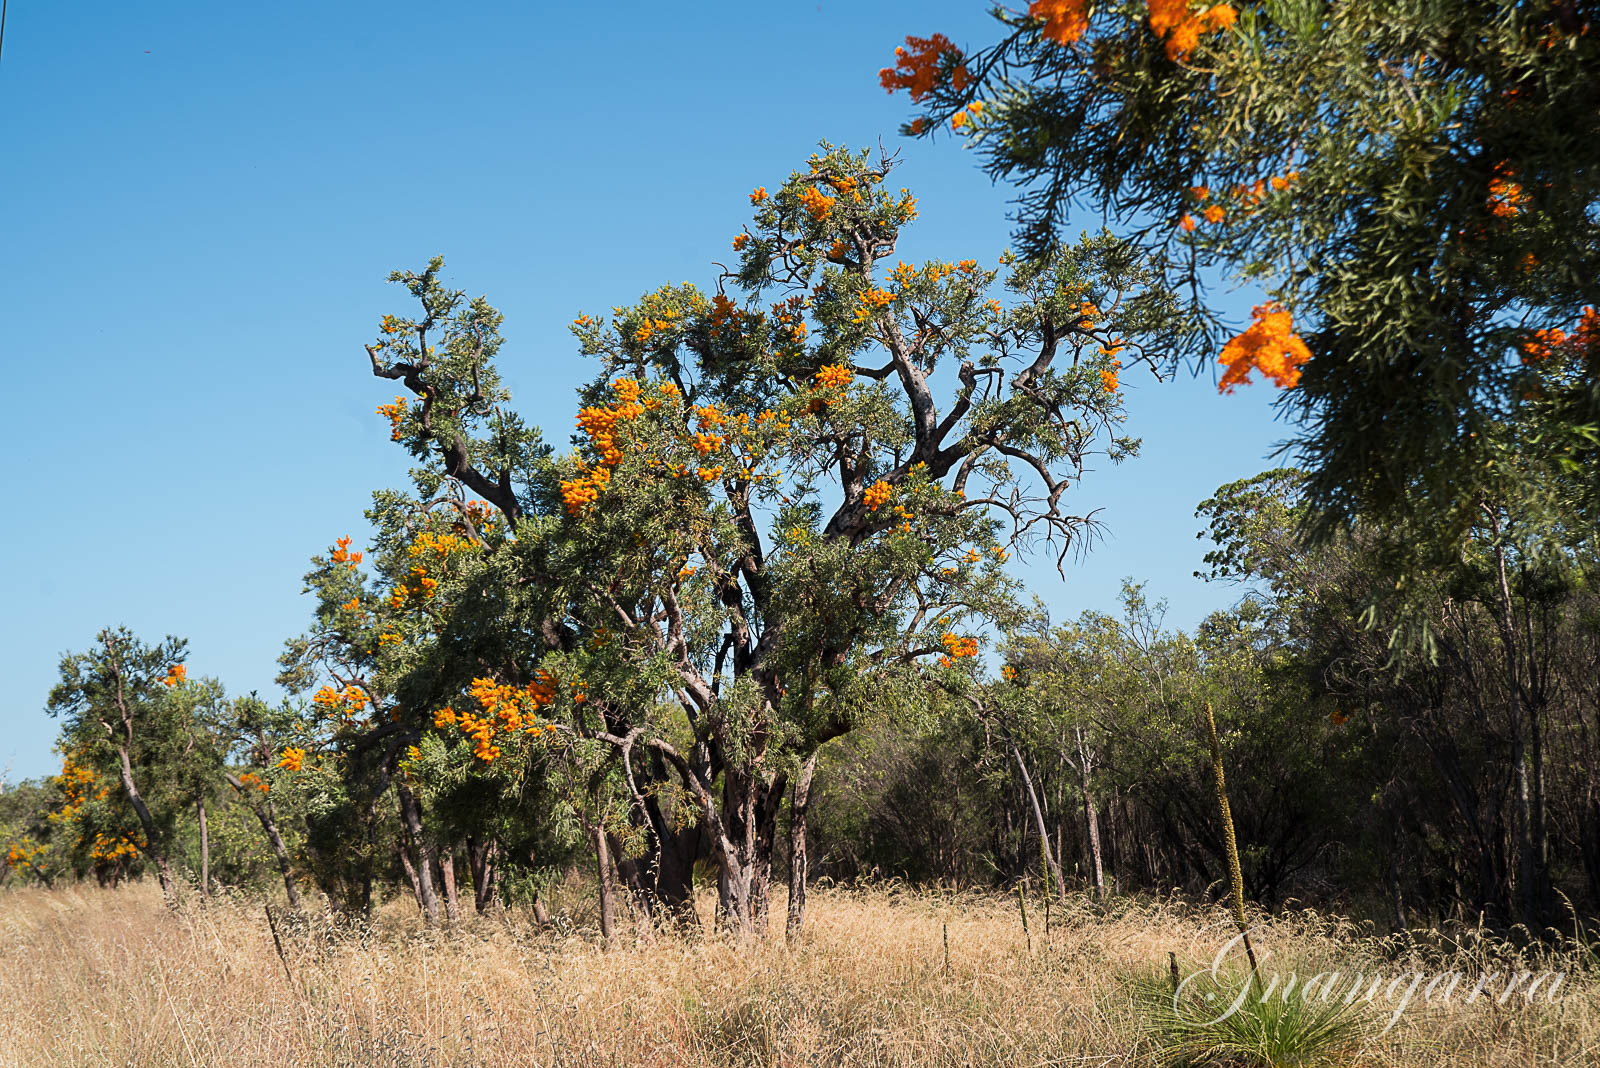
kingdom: Plantae
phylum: Tracheophyta
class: Magnoliopsida
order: Santalales
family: Loranthaceae
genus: Nuytsia
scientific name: Nuytsia floribunda
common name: Western australian christmastree
